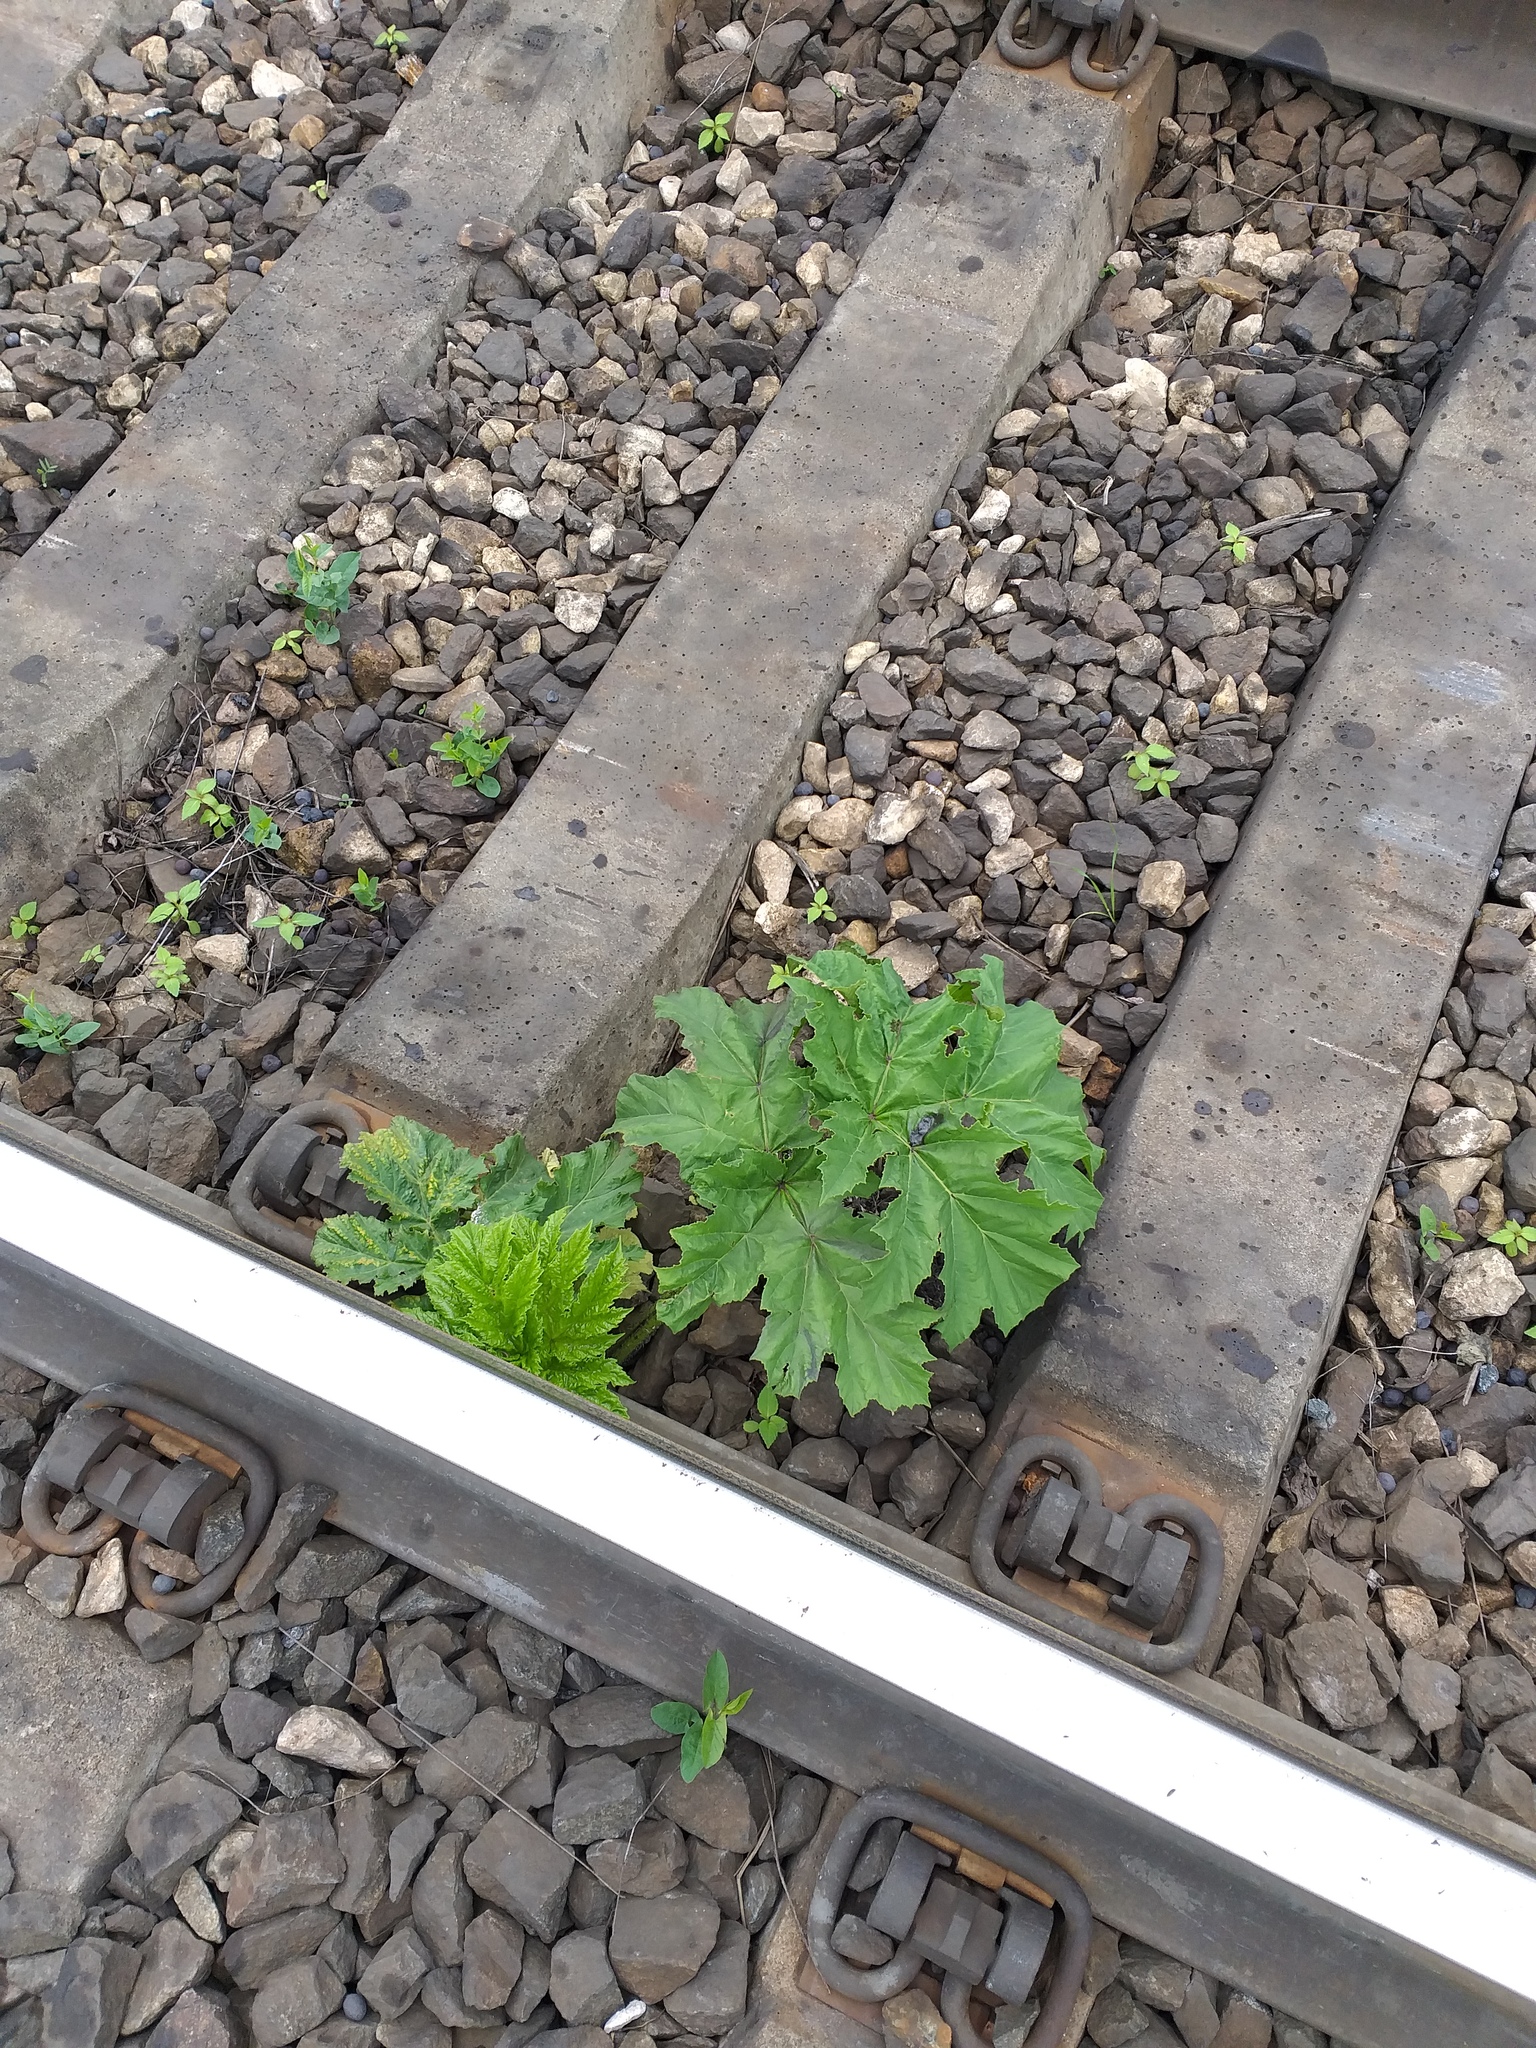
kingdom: Plantae
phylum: Tracheophyta
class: Magnoliopsida
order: Apiales
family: Apiaceae
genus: Heracleum
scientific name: Heracleum sosnowskyi
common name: Sosnowsky's hogweed
